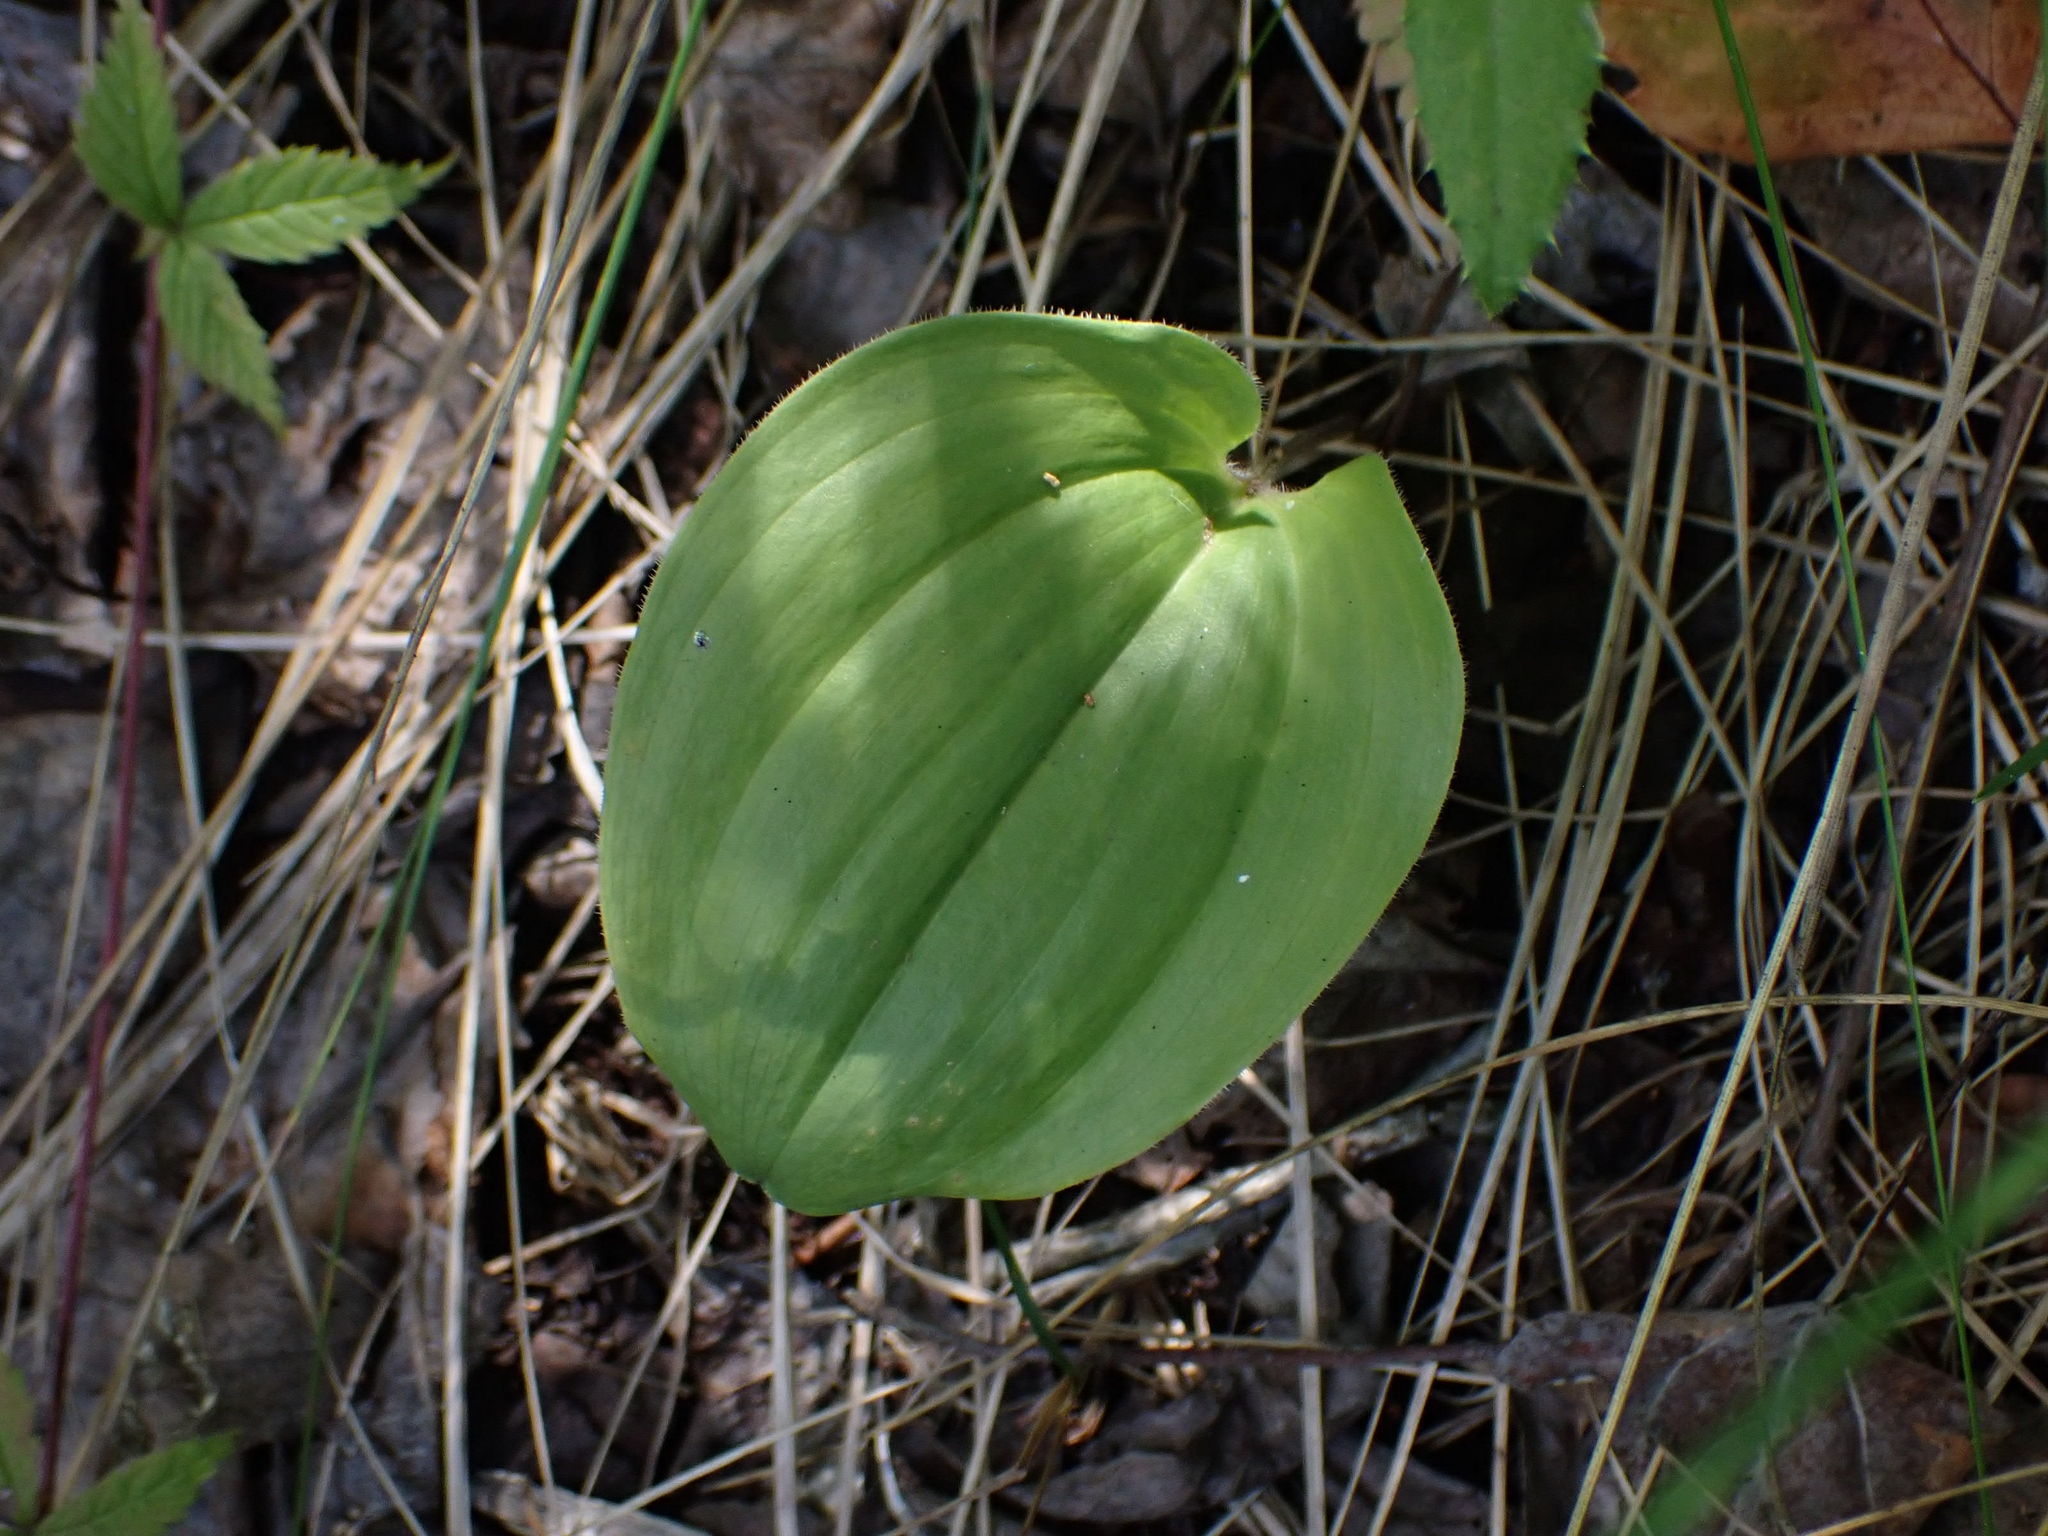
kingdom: Plantae
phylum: Tracheophyta
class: Liliopsida
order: Asparagales
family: Asparagaceae
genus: Maianthemum
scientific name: Maianthemum canadense
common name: False lily-of-the-valley
